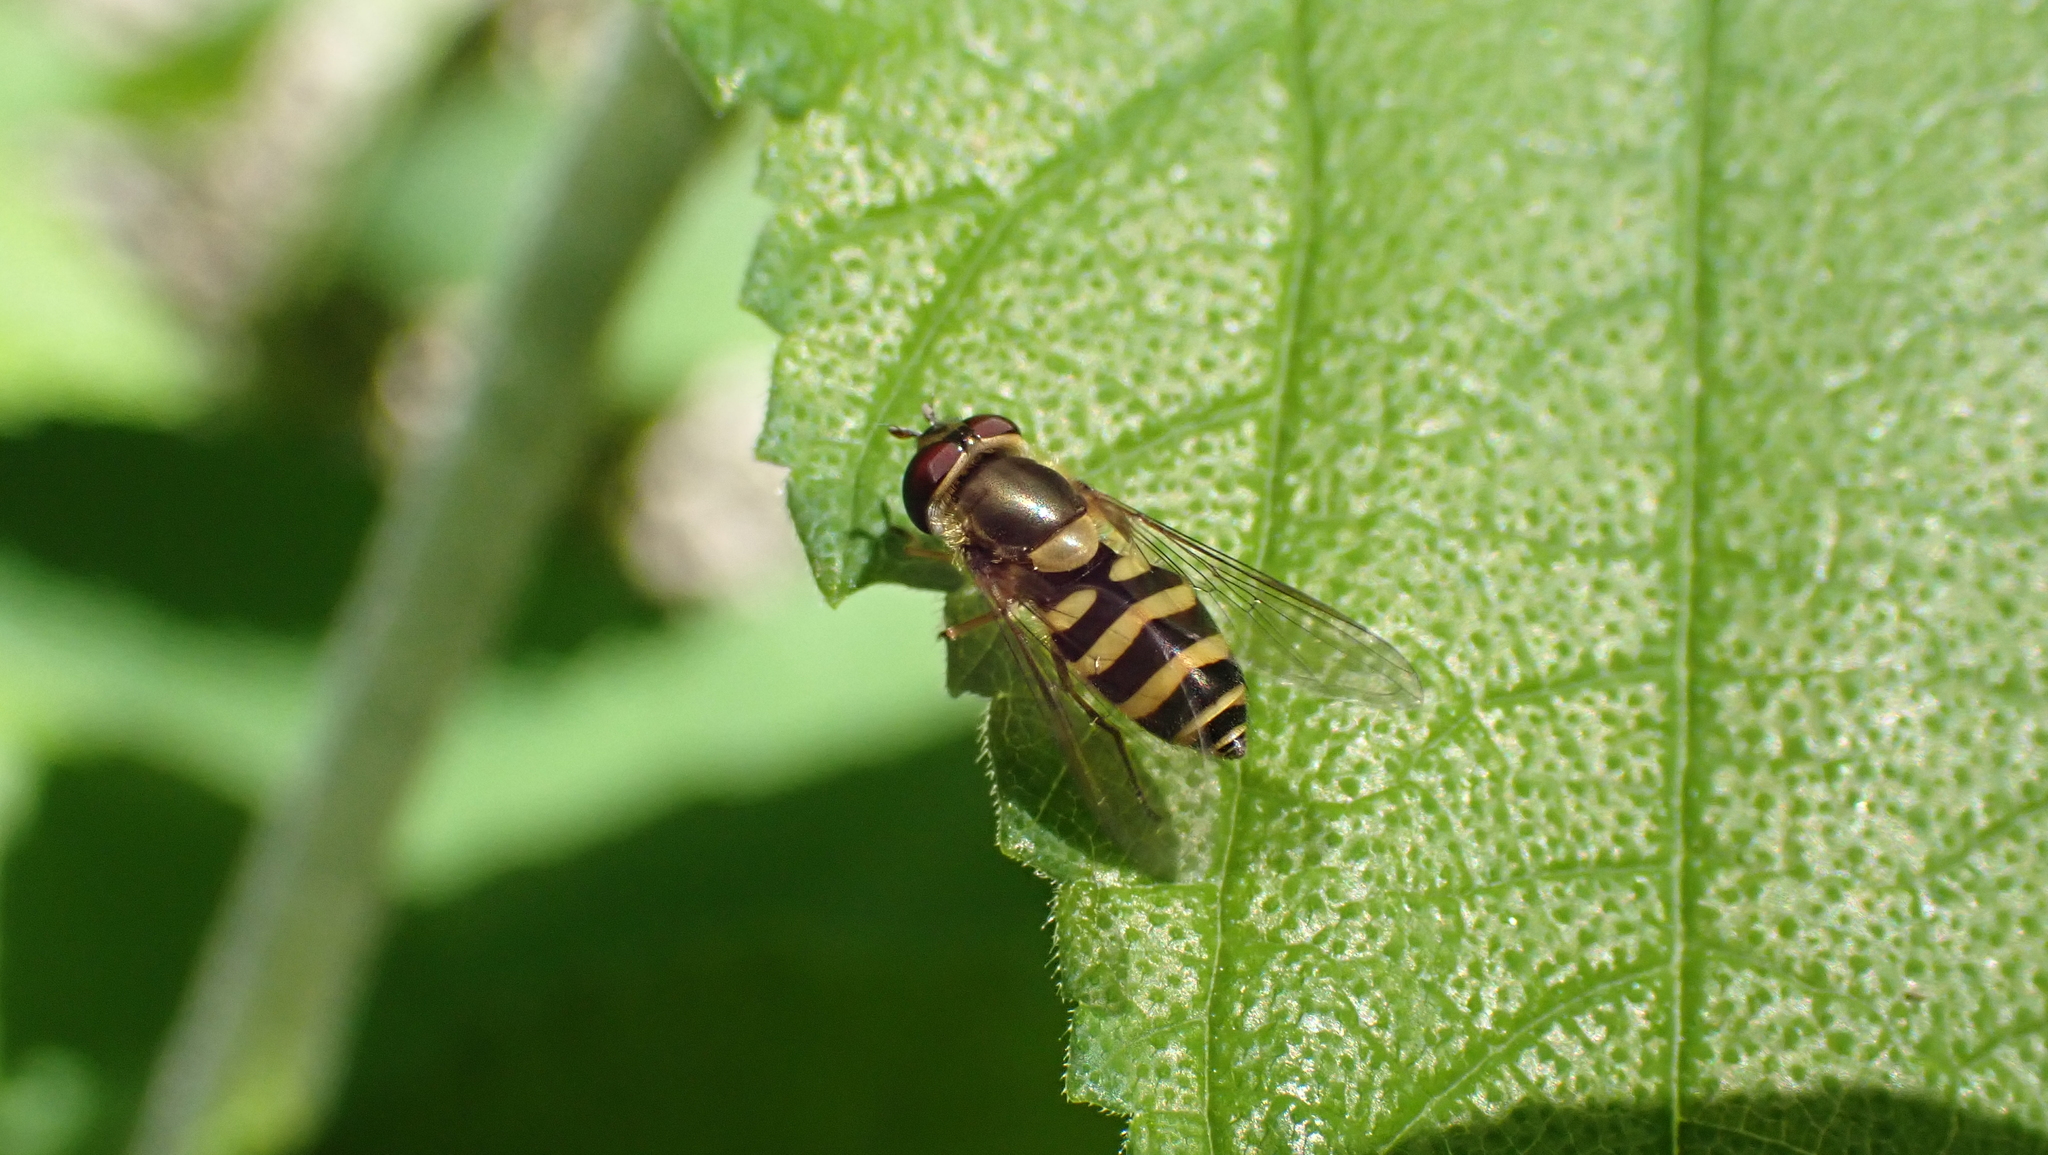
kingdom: Animalia
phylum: Arthropoda
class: Insecta
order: Diptera
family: Syrphidae
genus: Syrphus
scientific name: Syrphus
